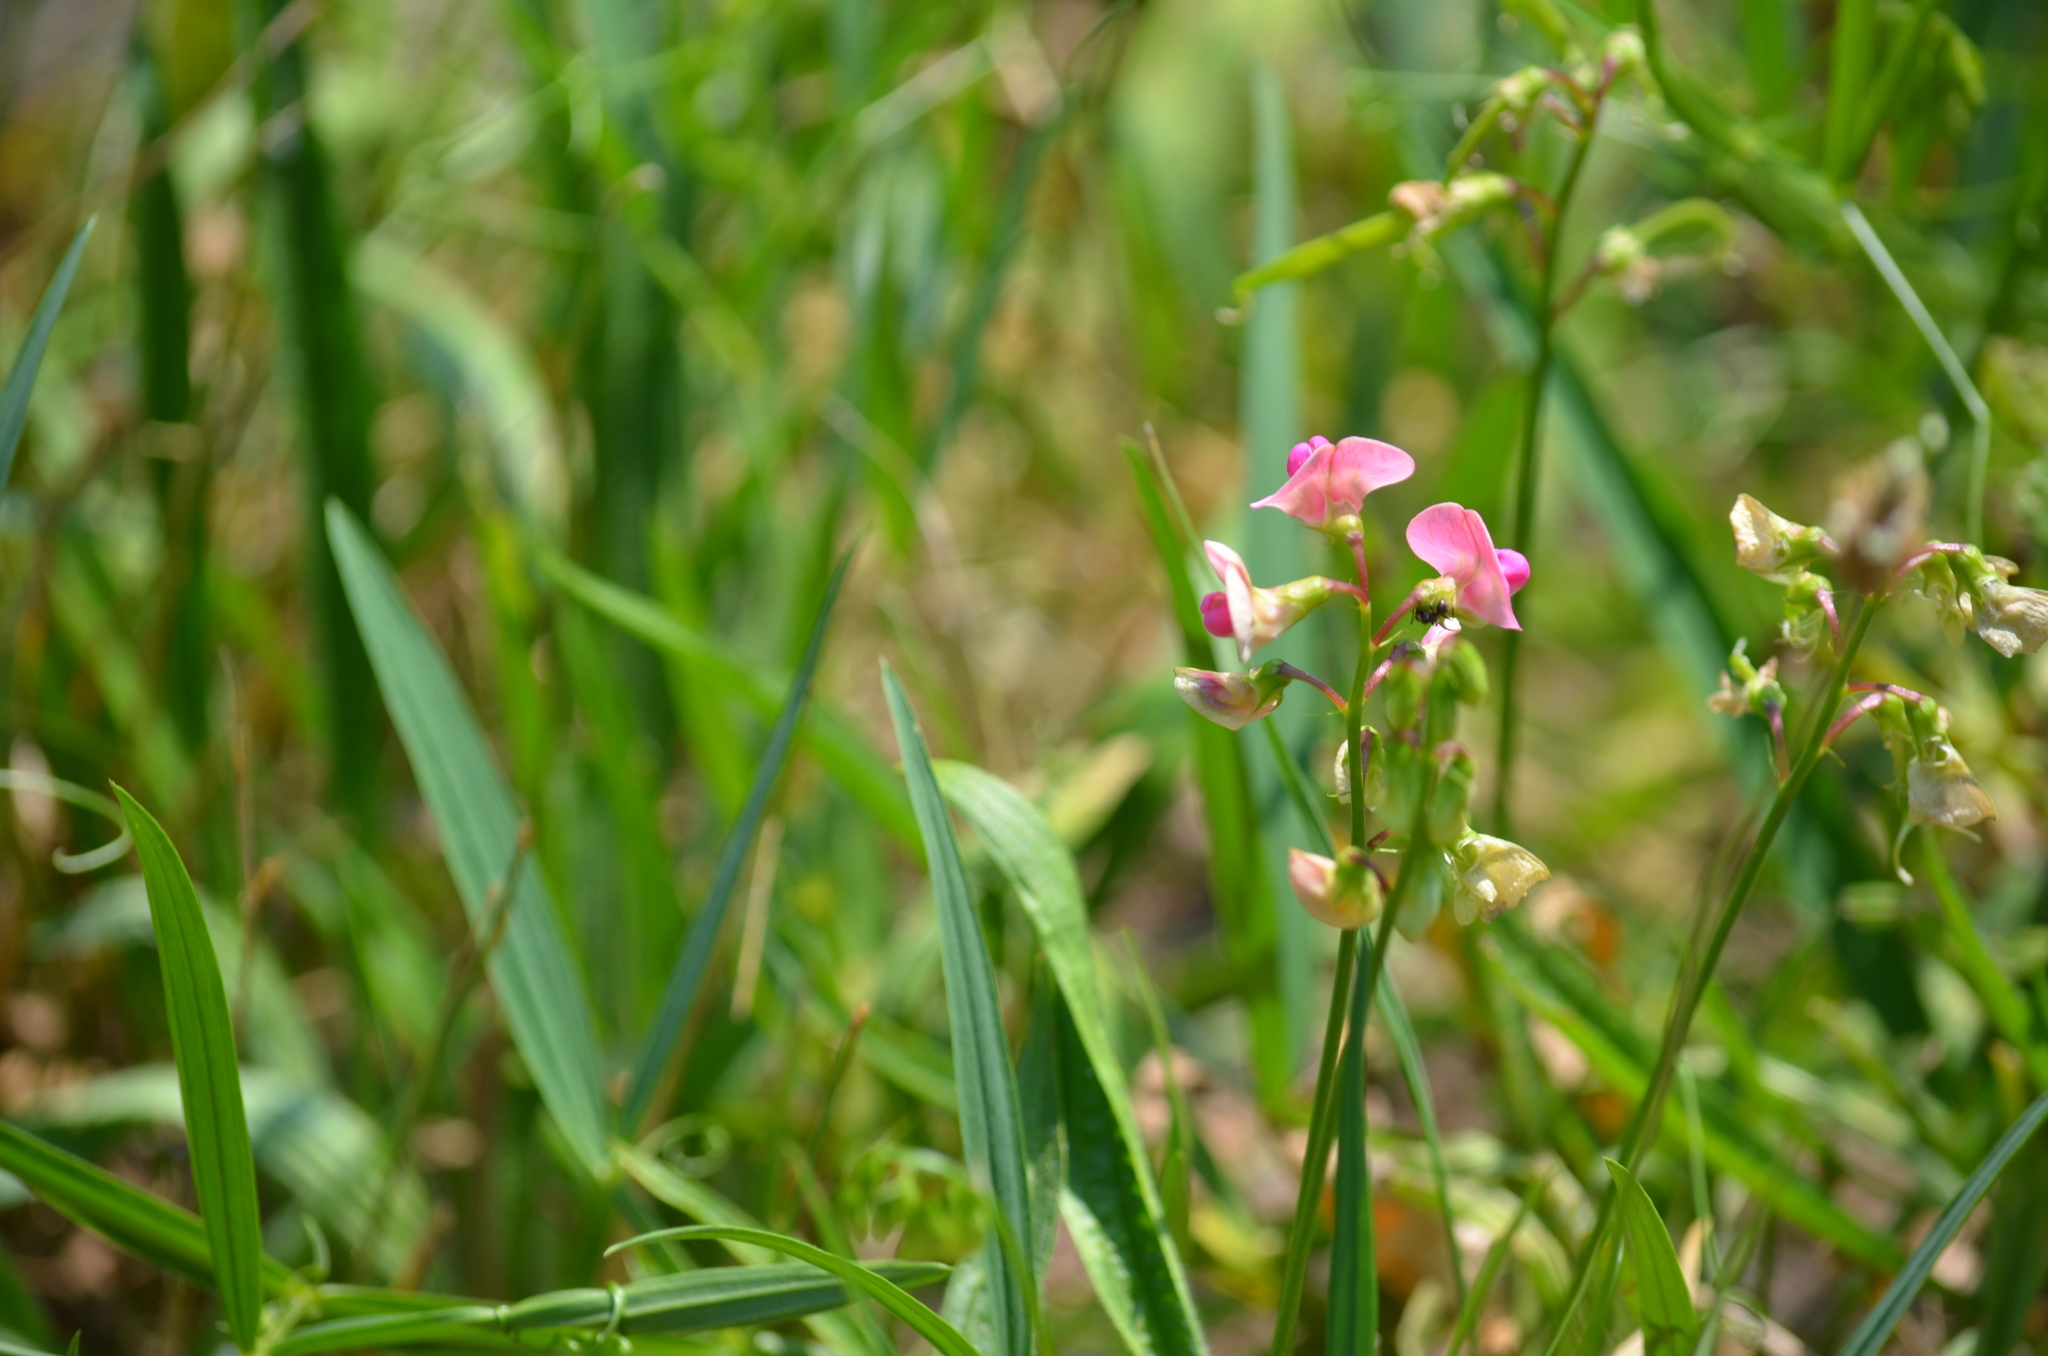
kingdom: Plantae
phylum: Tracheophyta
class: Magnoliopsida
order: Fabales
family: Fabaceae
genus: Lathyrus
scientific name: Lathyrus sylvestris
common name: Flat pea
